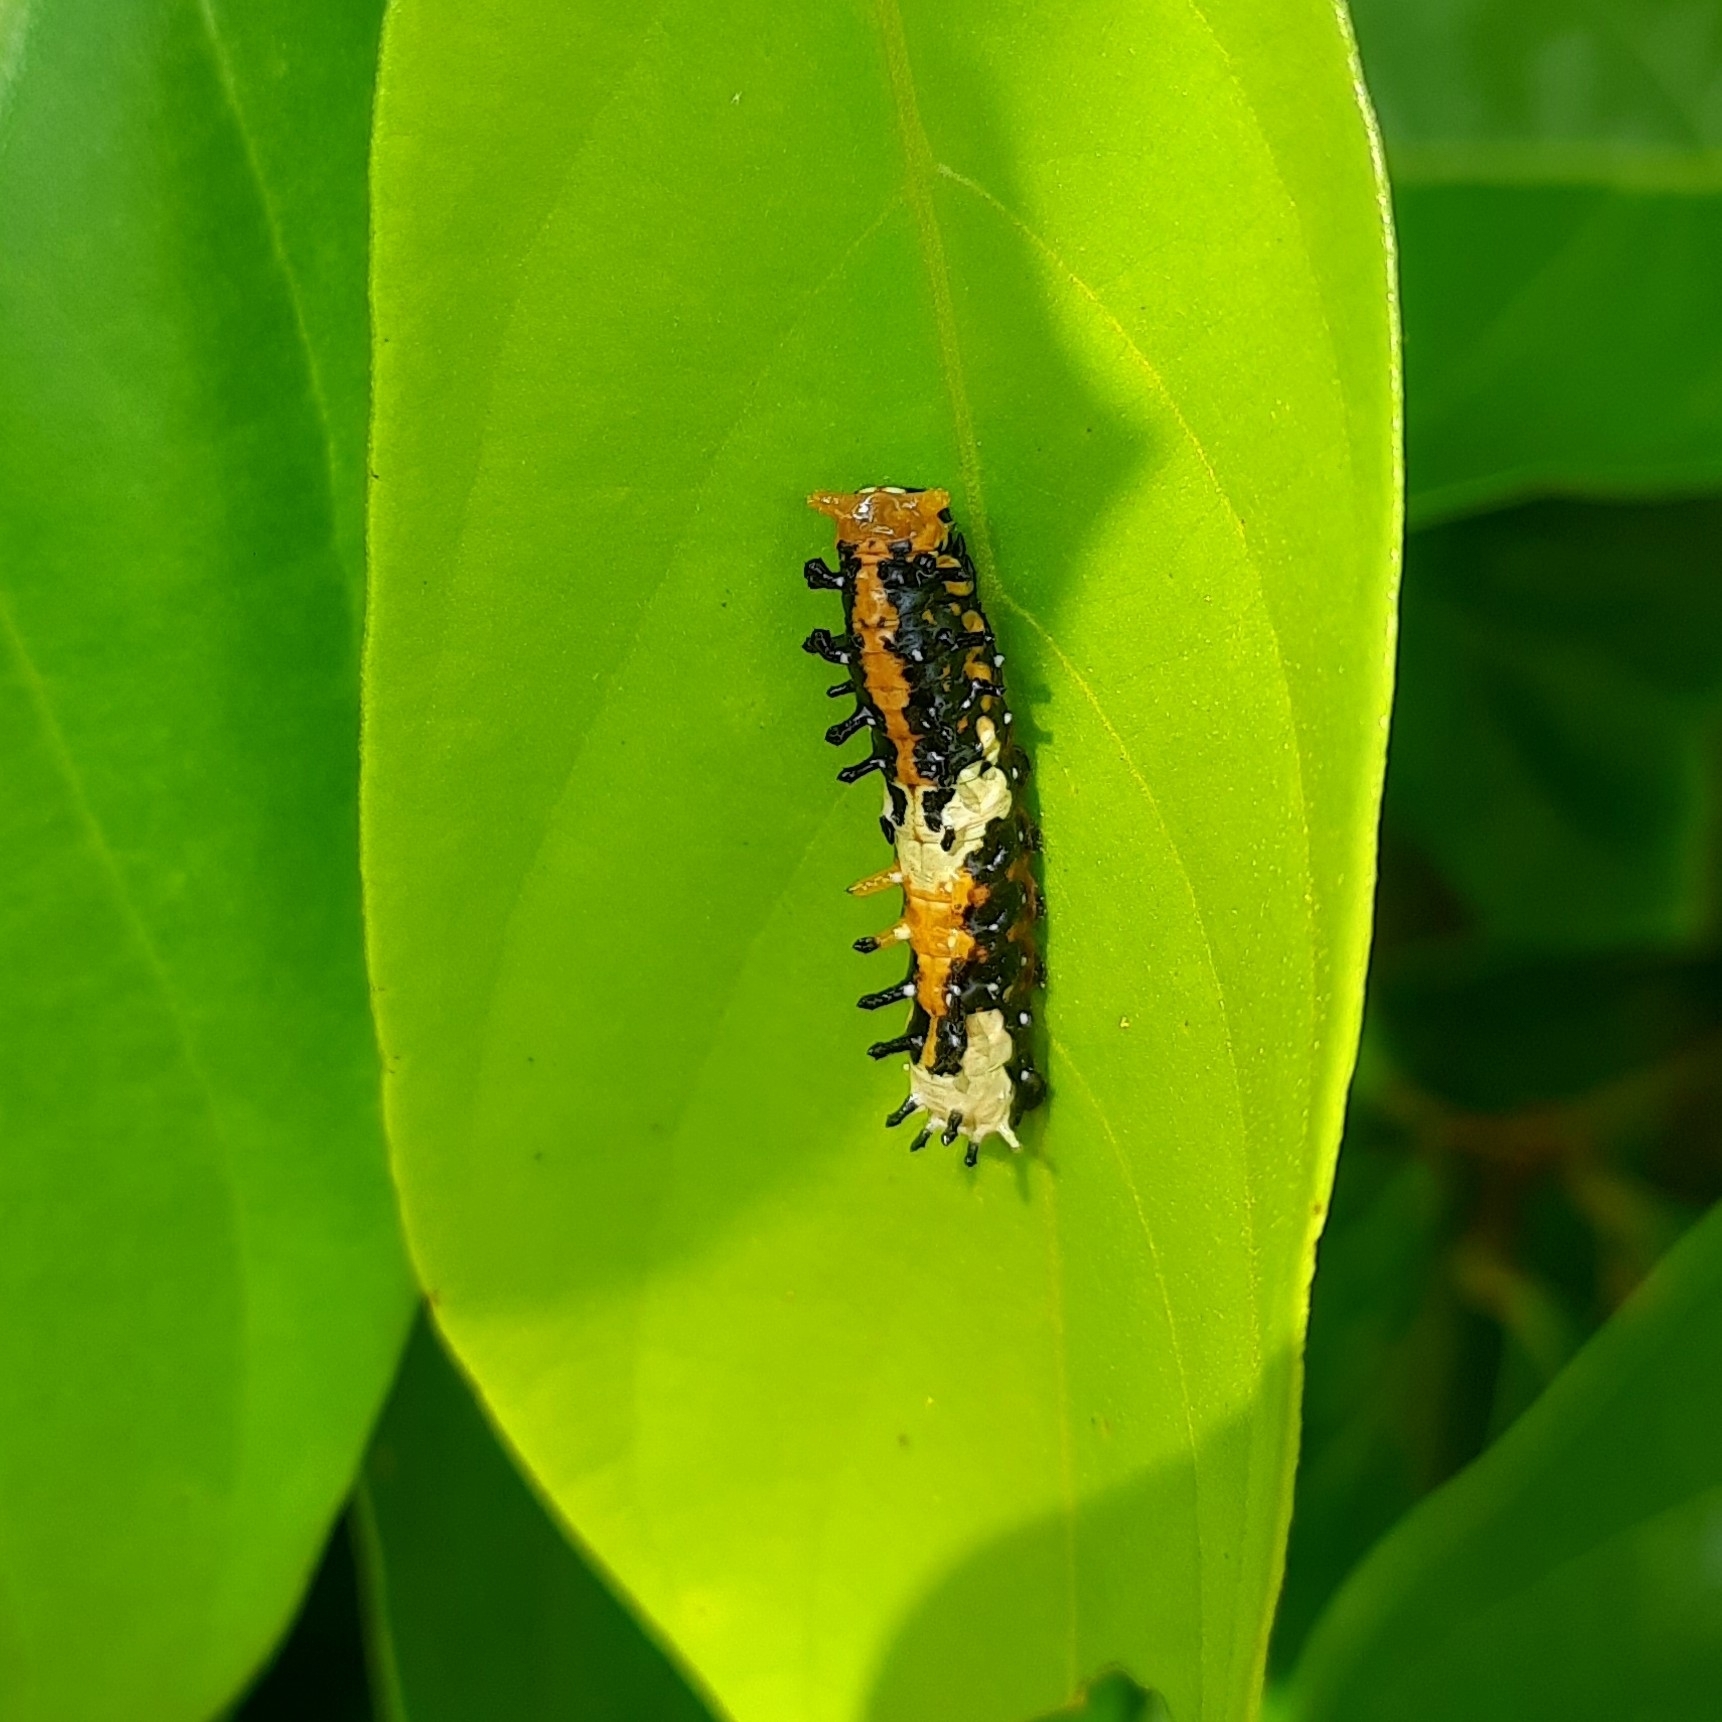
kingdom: Animalia
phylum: Arthropoda
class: Insecta
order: Lepidoptera
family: Papilionidae
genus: Chilasa
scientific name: Chilasa clytia
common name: Common mime
